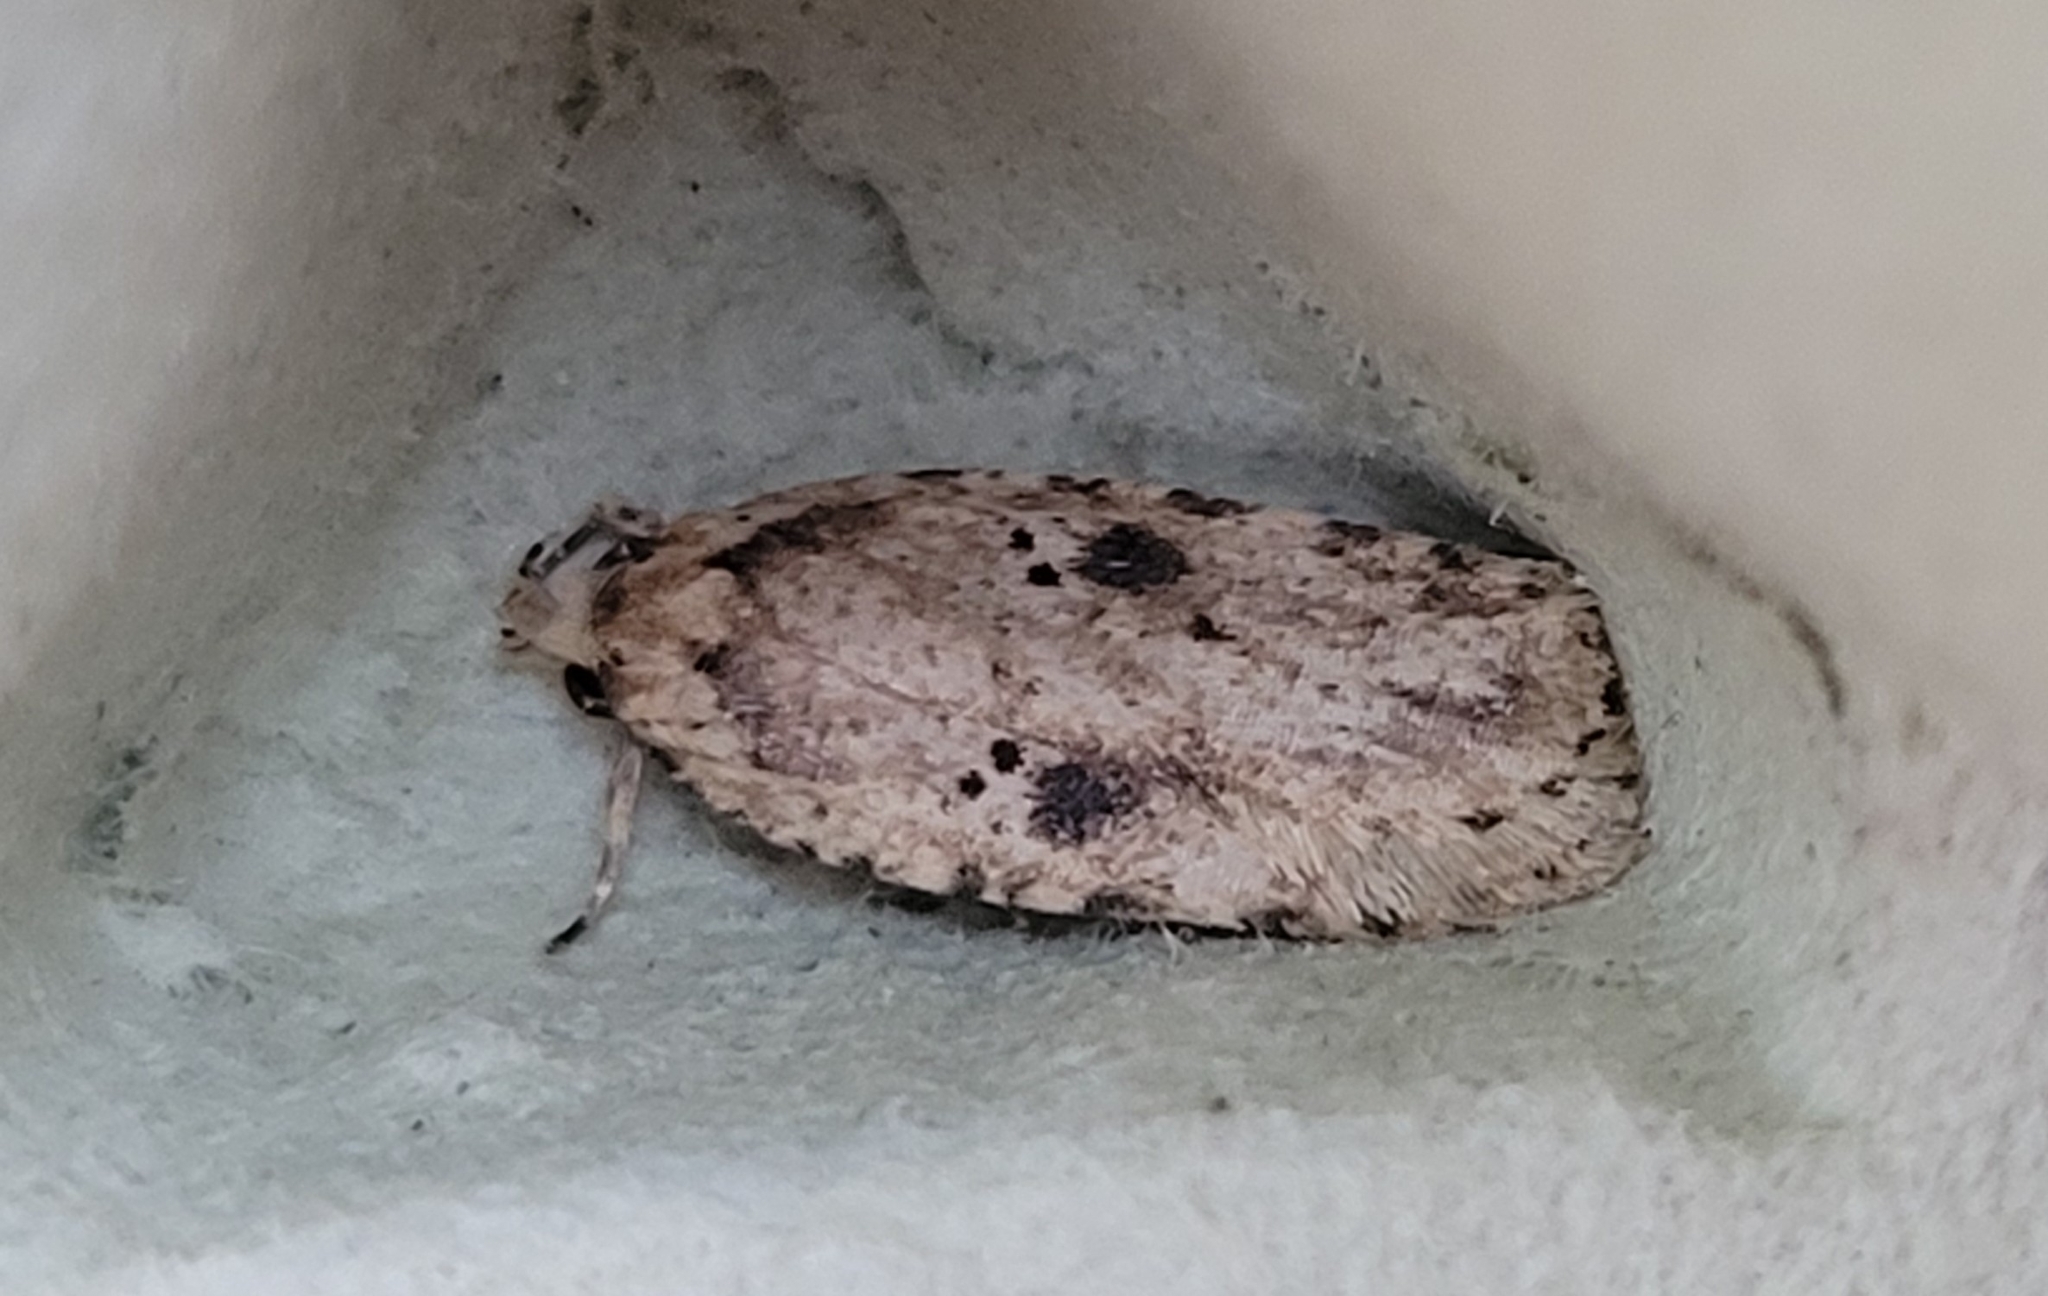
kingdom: Animalia
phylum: Arthropoda
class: Insecta
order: Lepidoptera
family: Depressariidae
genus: Agonopterix
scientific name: Agonopterix arenella
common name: Brindled flat-body
